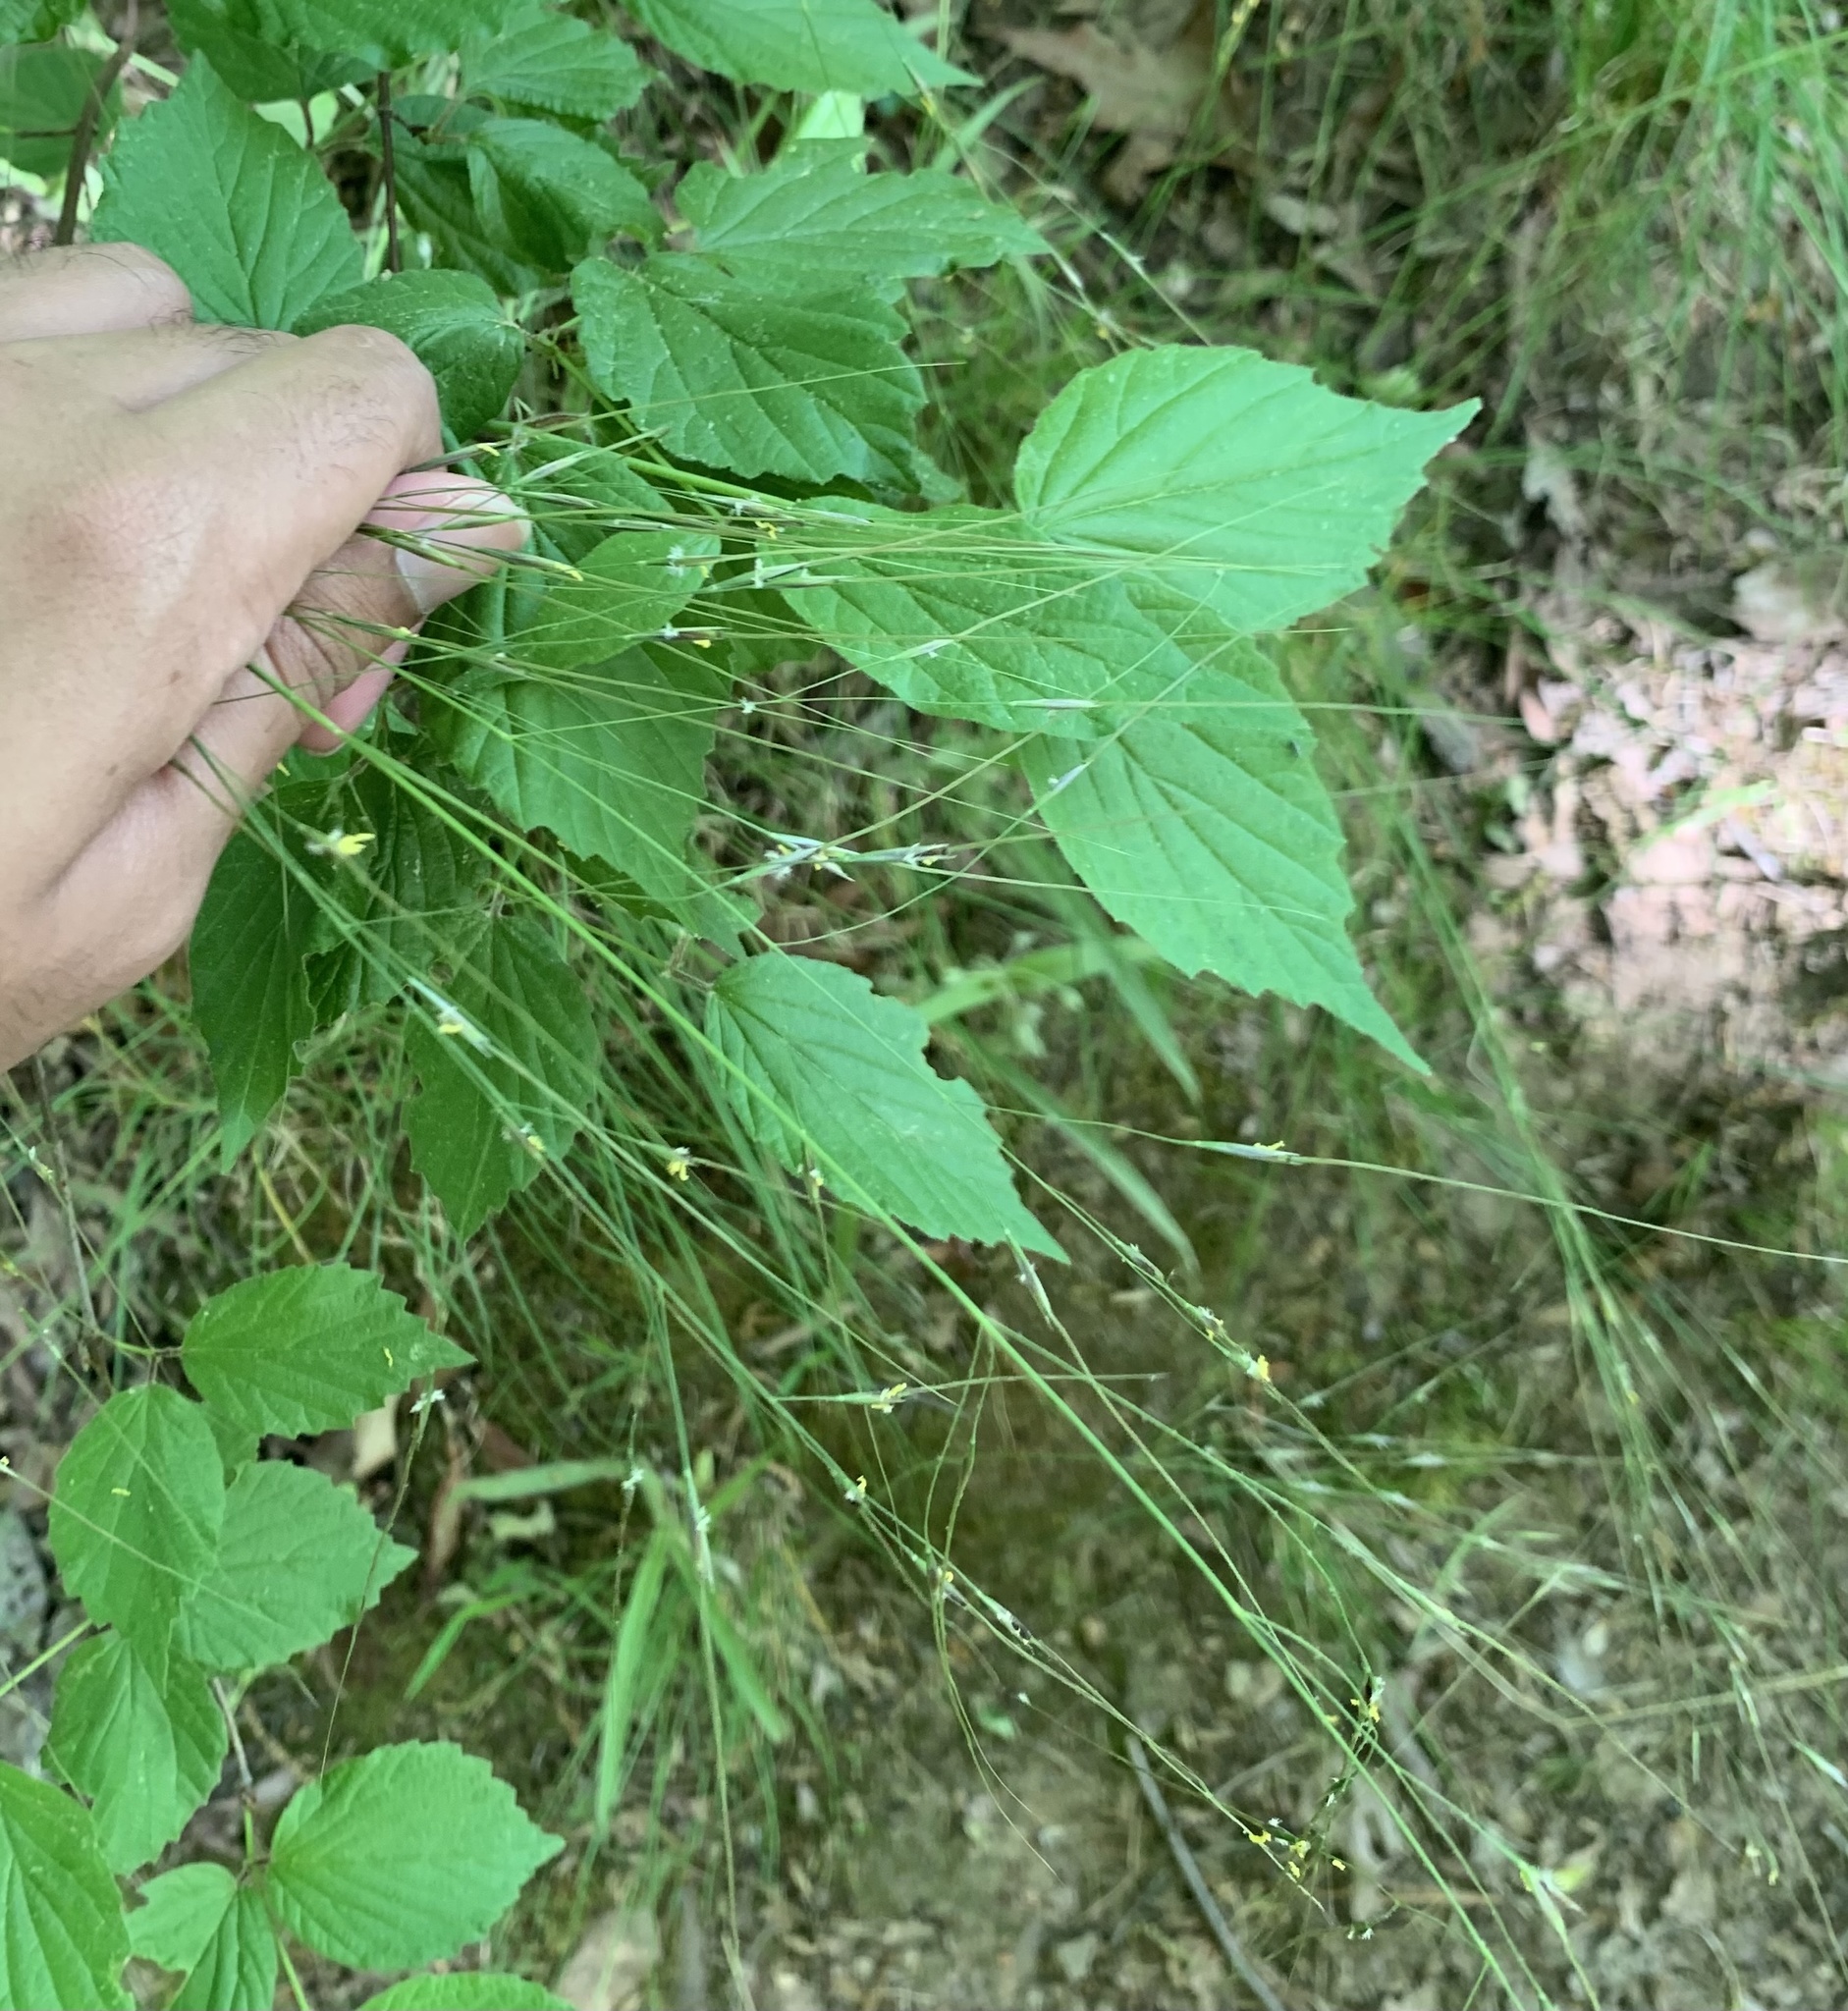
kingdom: Plantae
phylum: Tracheophyta
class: Liliopsida
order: Poales
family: Poaceae
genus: Piptochaetium
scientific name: Piptochaetium avenaceum
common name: Black bunchgrass
